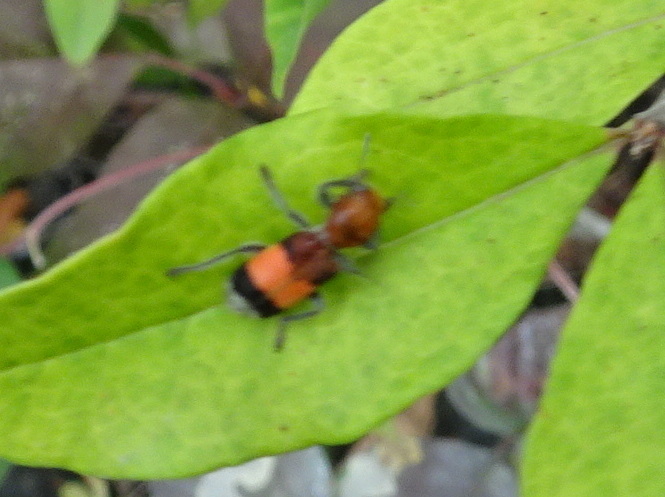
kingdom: Animalia
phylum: Arthropoda
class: Insecta
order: Coleoptera
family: Cleridae
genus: Enoclerus
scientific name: Enoclerus ichneumoneus
